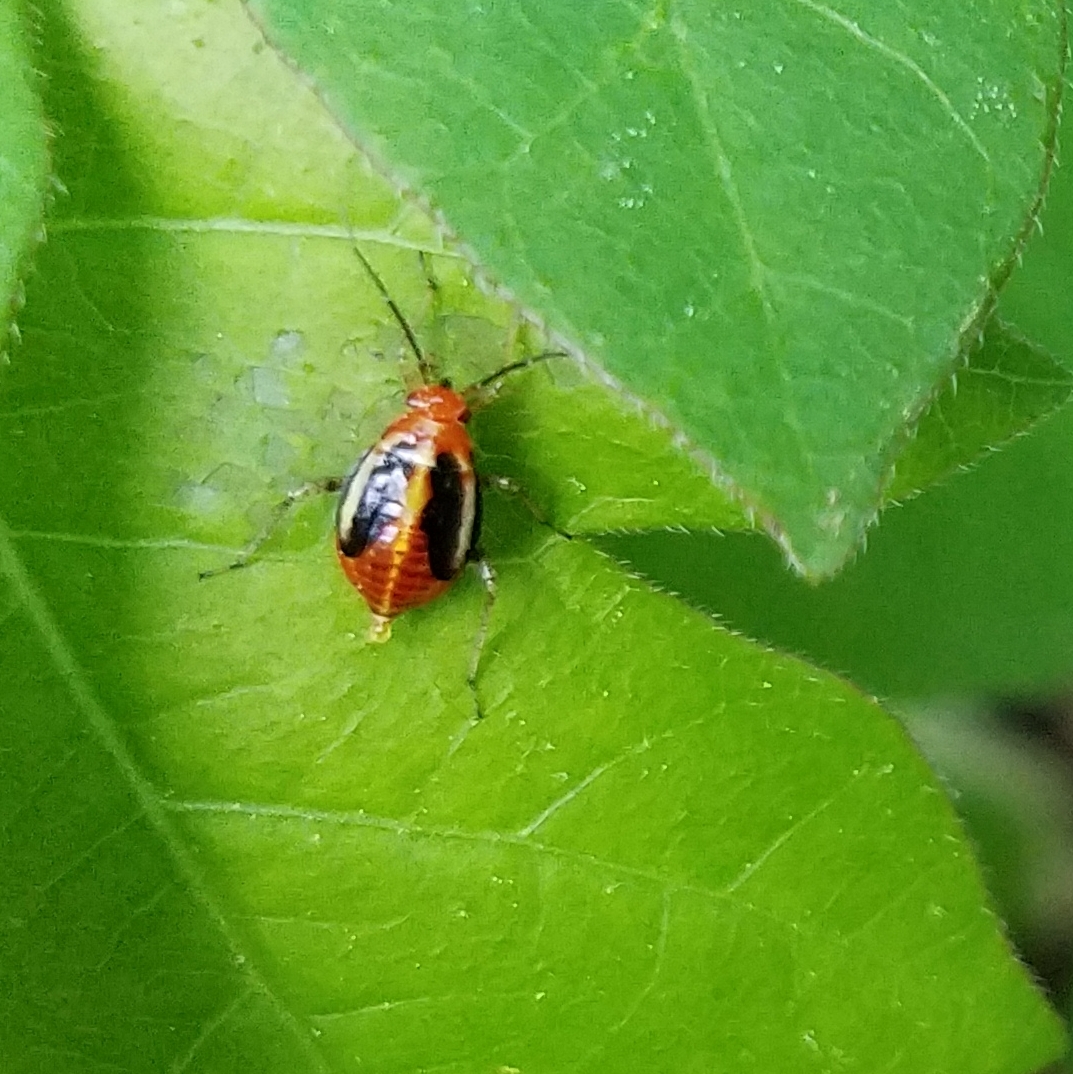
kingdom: Animalia
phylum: Arthropoda
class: Insecta
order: Hemiptera
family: Miridae
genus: Poecilocapsus
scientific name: Poecilocapsus lineatus
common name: Four-lined plant bug
